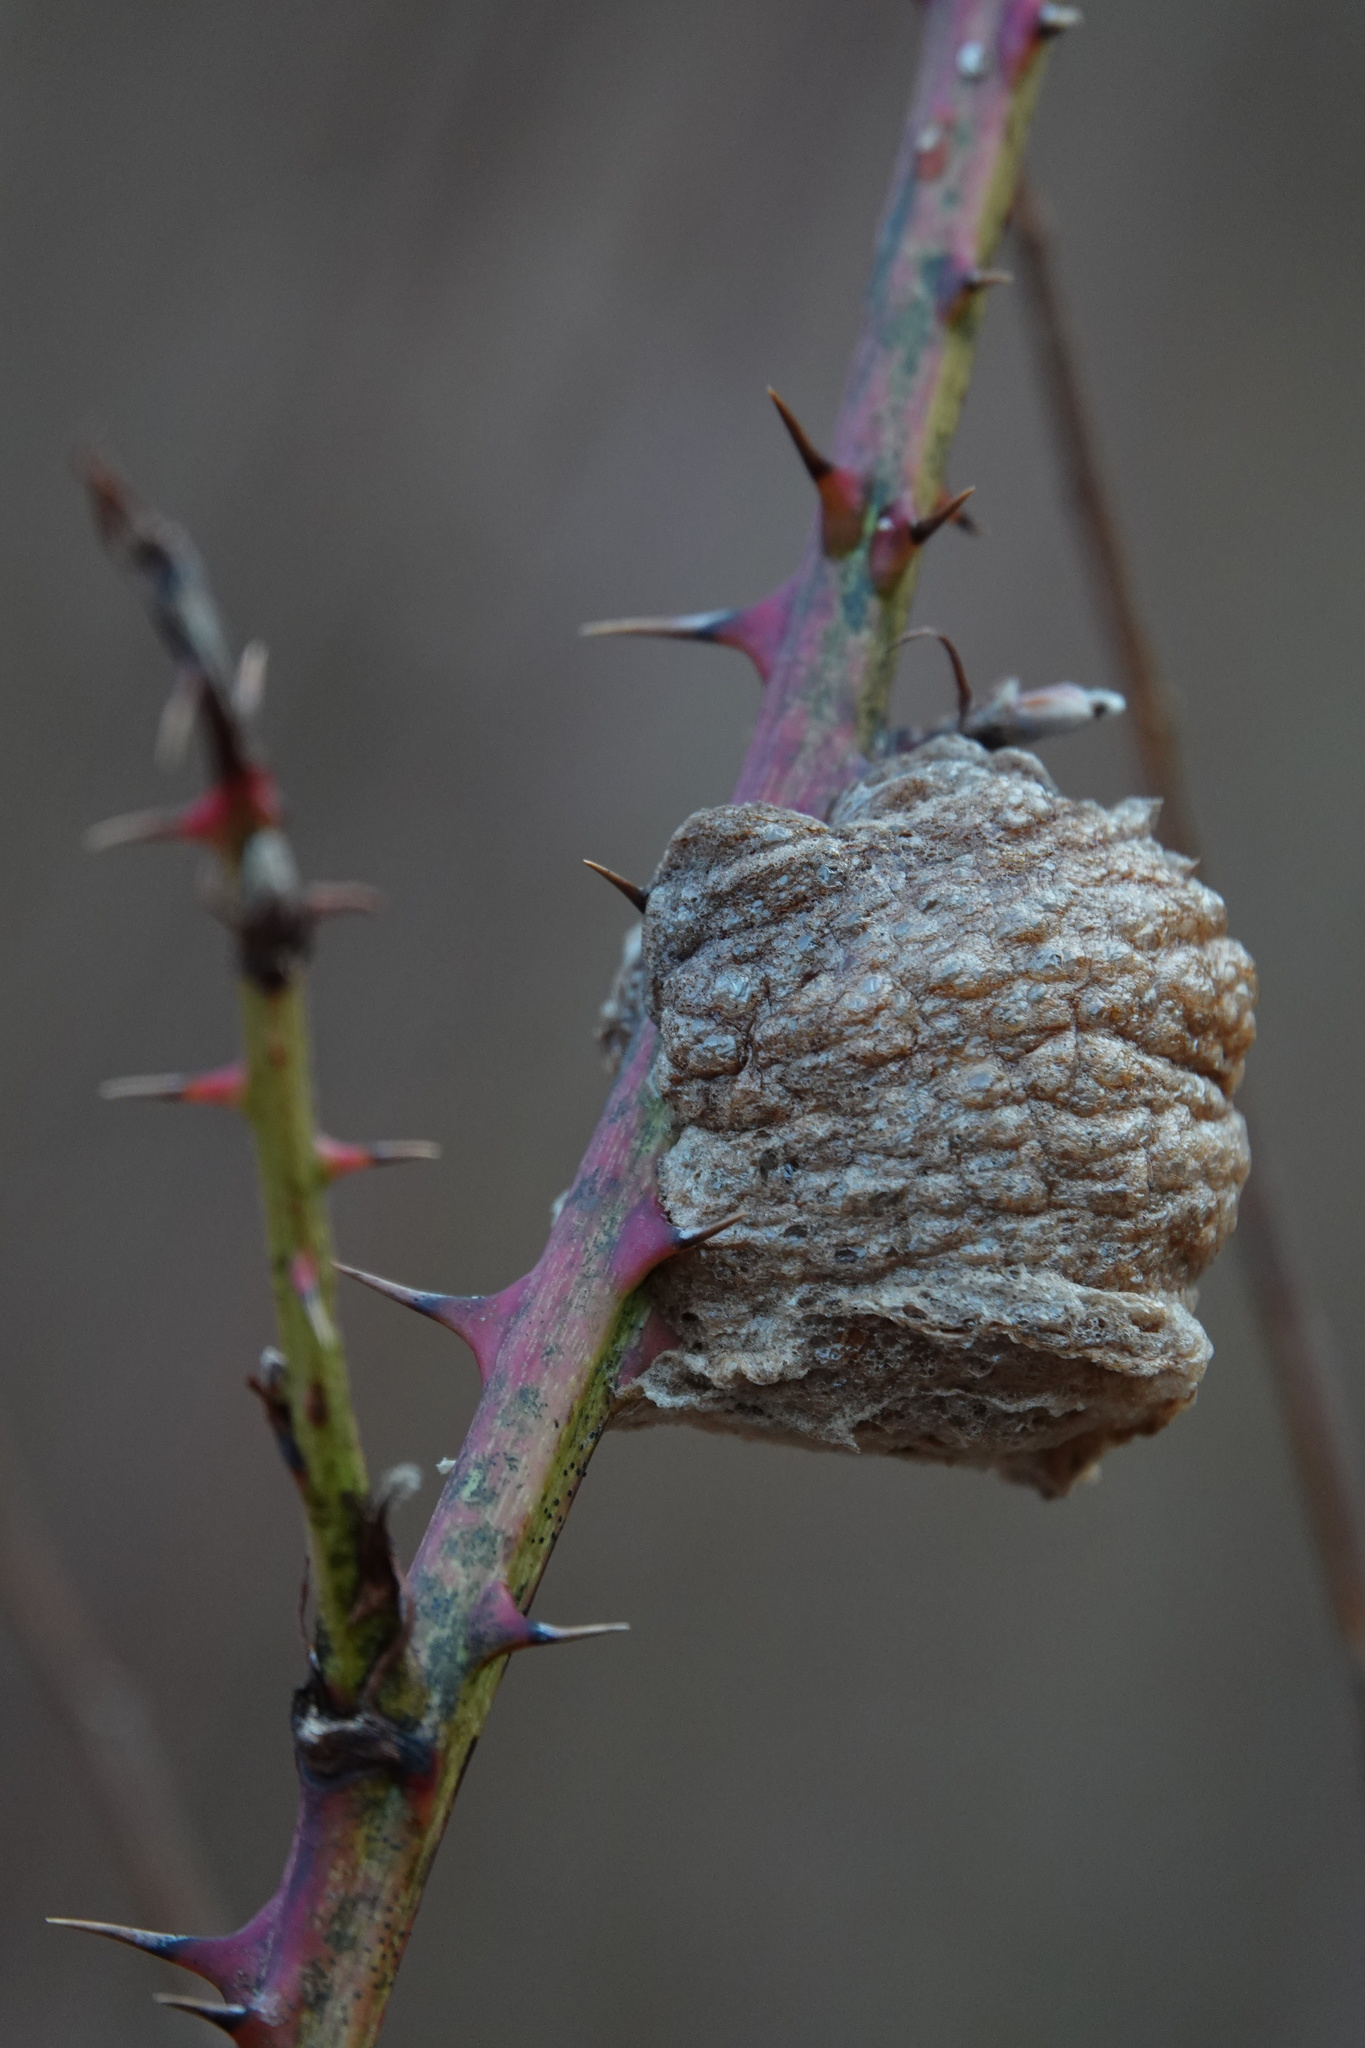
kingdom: Animalia
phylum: Arthropoda
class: Insecta
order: Mantodea
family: Mantidae
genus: Tenodera
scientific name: Tenodera sinensis
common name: Chinese mantis
